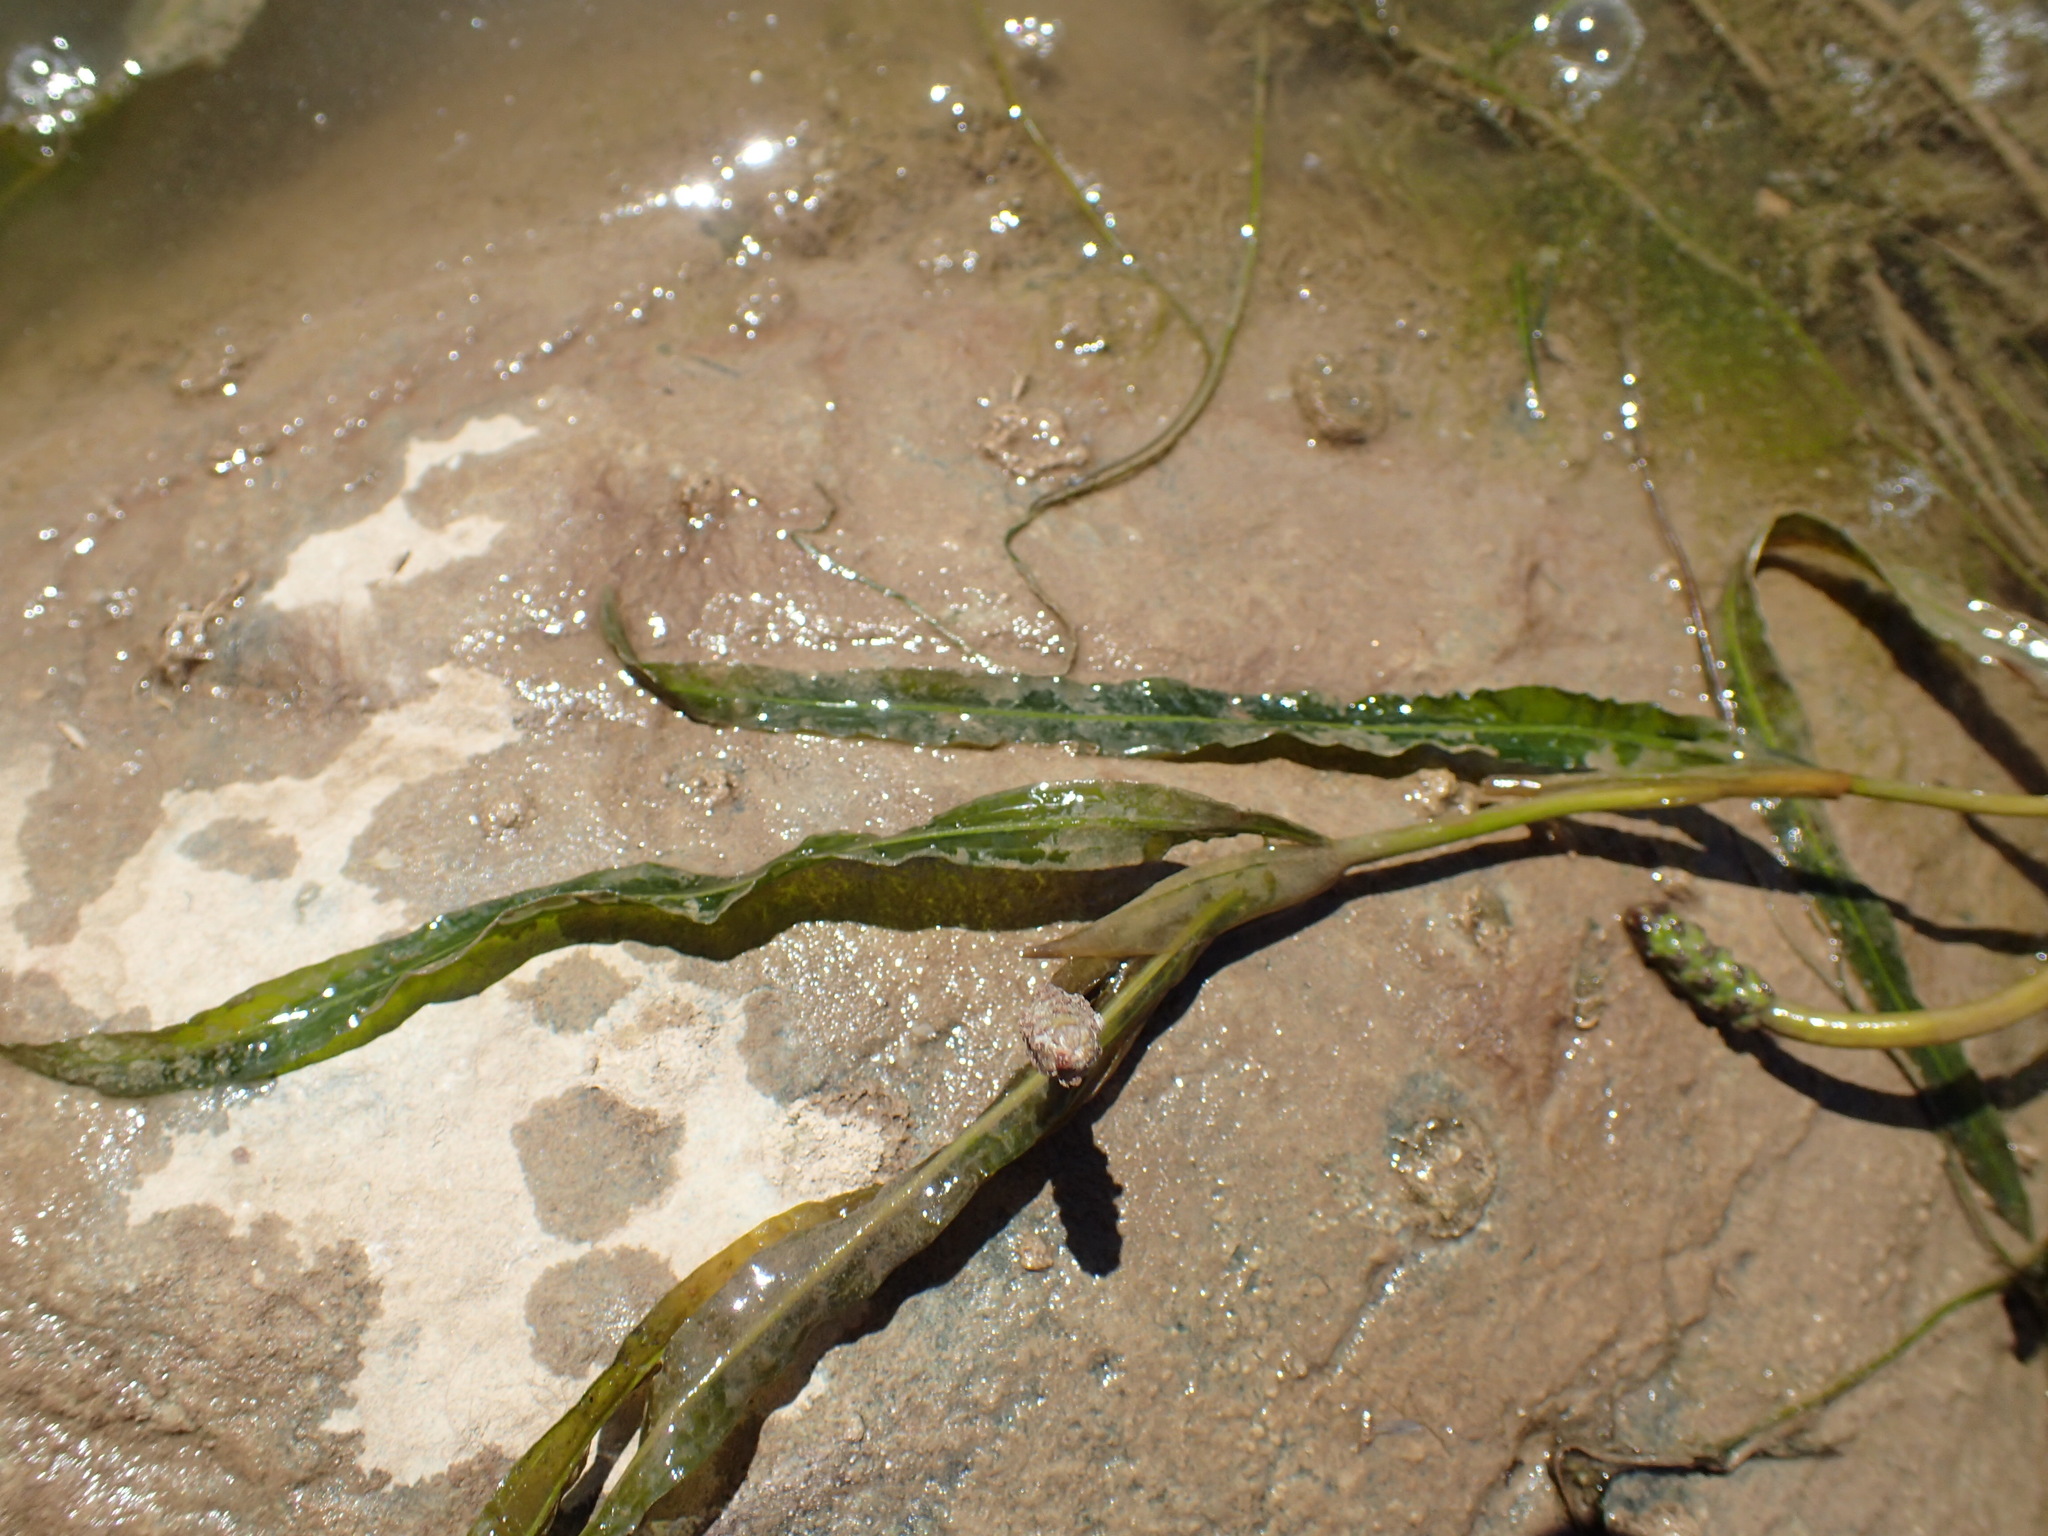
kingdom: Plantae
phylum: Tracheophyta
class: Liliopsida
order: Alismatales
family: Potamogetonaceae
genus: Potamogeton
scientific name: Potamogeton schweinfurthii
